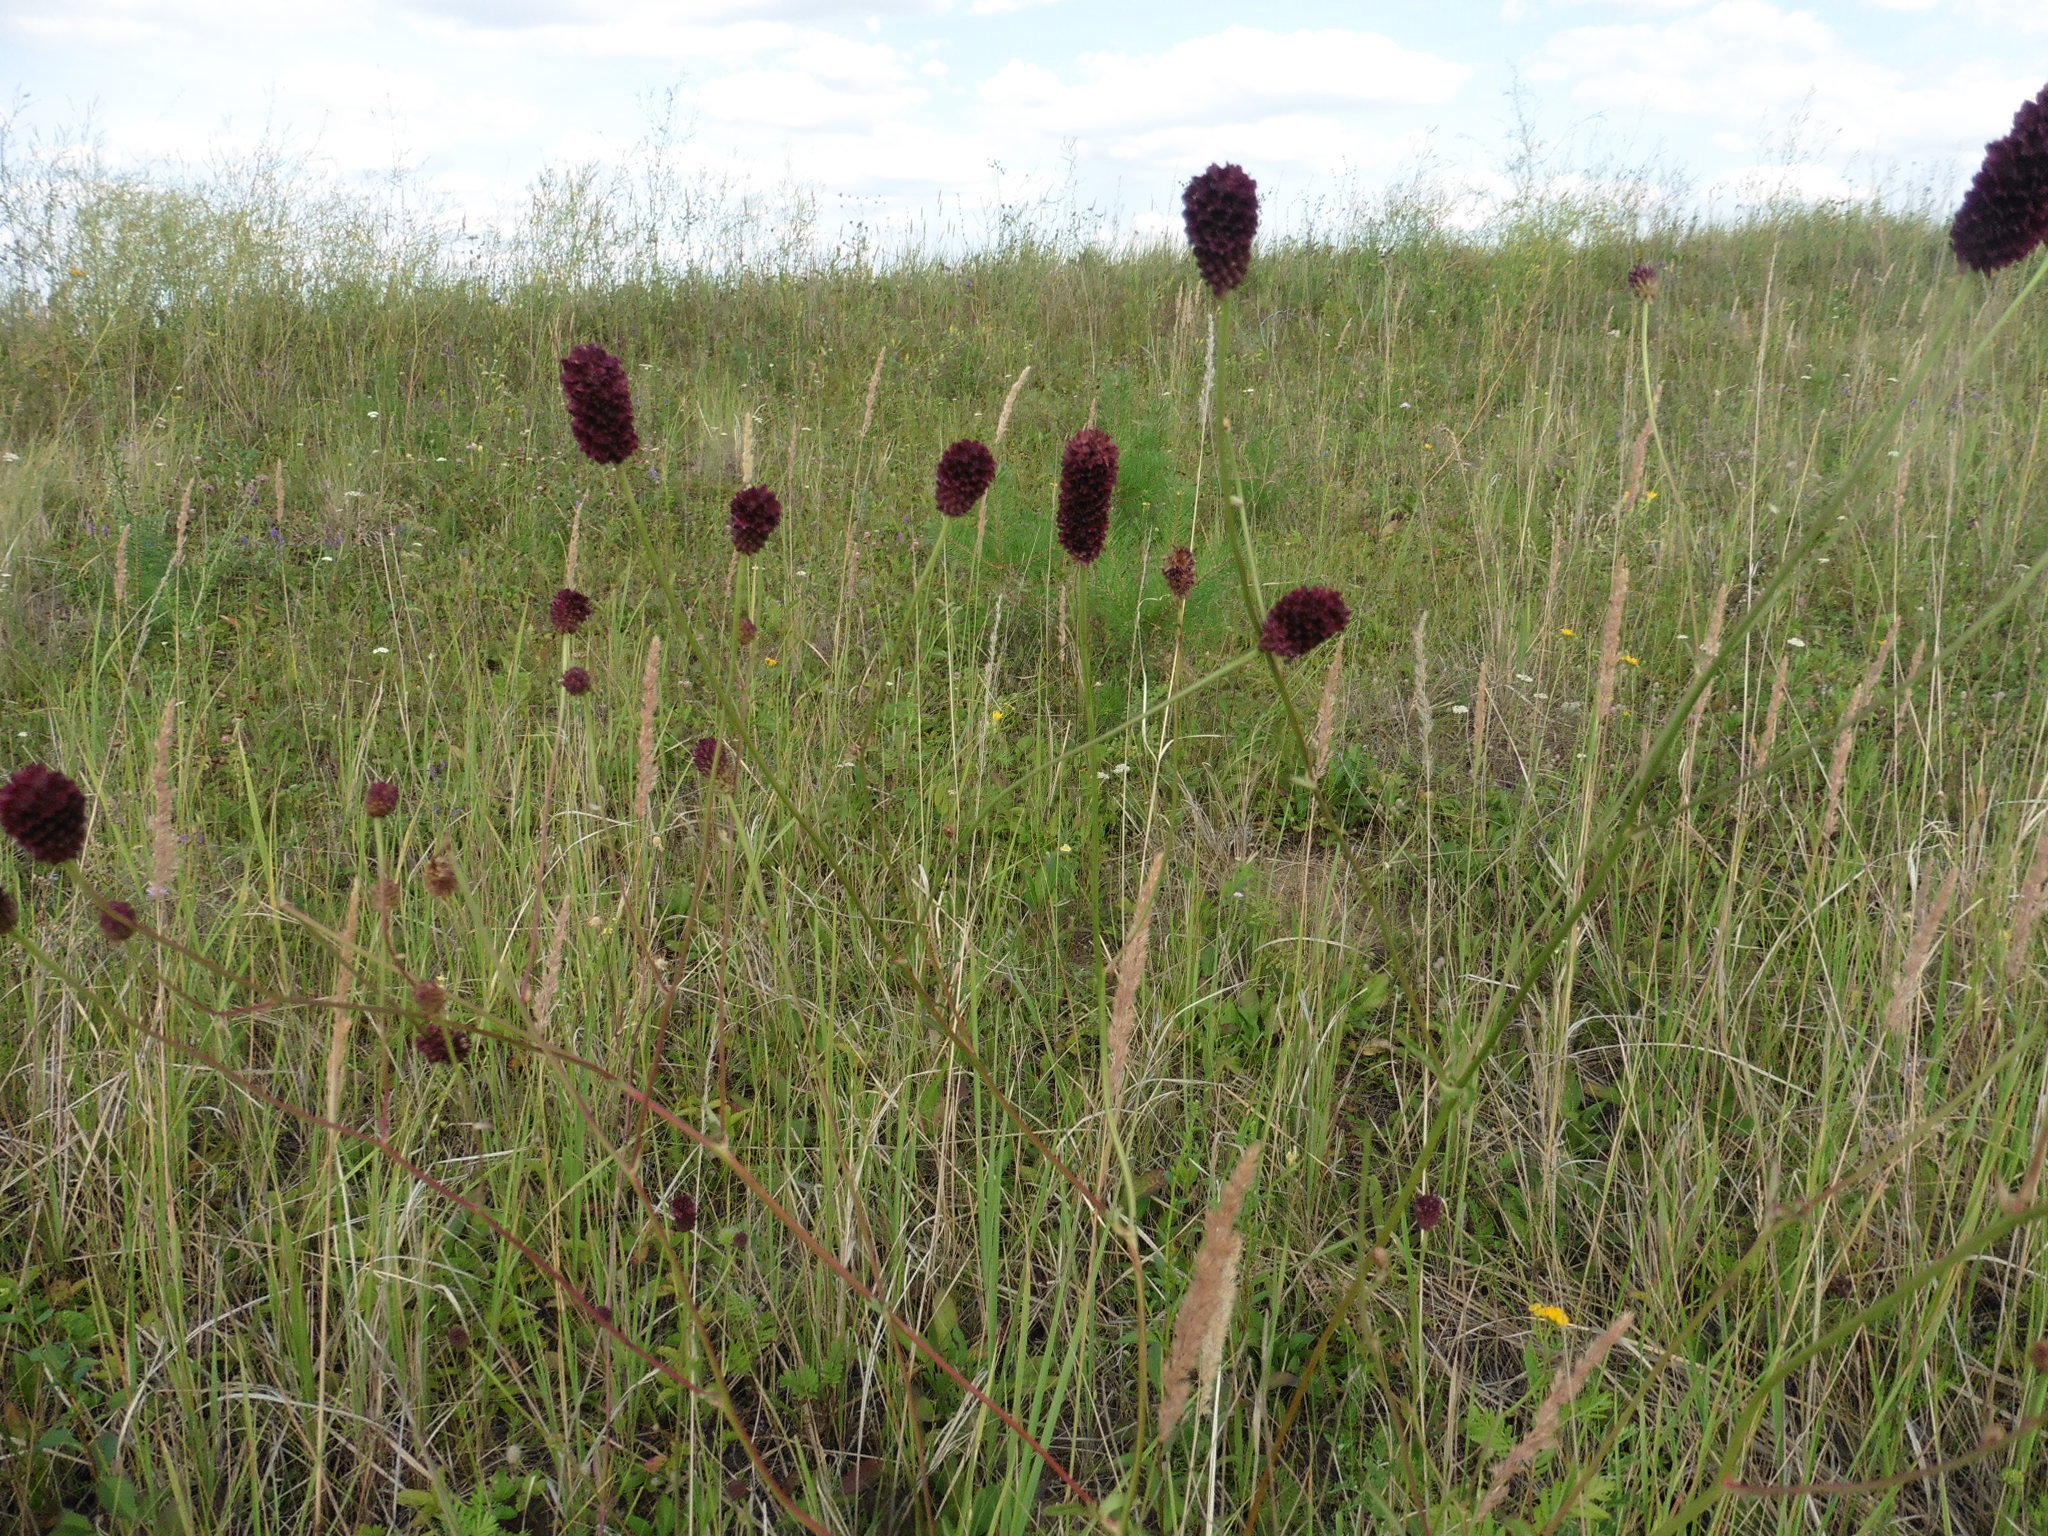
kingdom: Plantae
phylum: Tracheophyta
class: Magnoliopsida
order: Rosales
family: Rosaceae
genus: Sanguisorba
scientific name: Sanguisorba officinalis
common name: Great burnet
